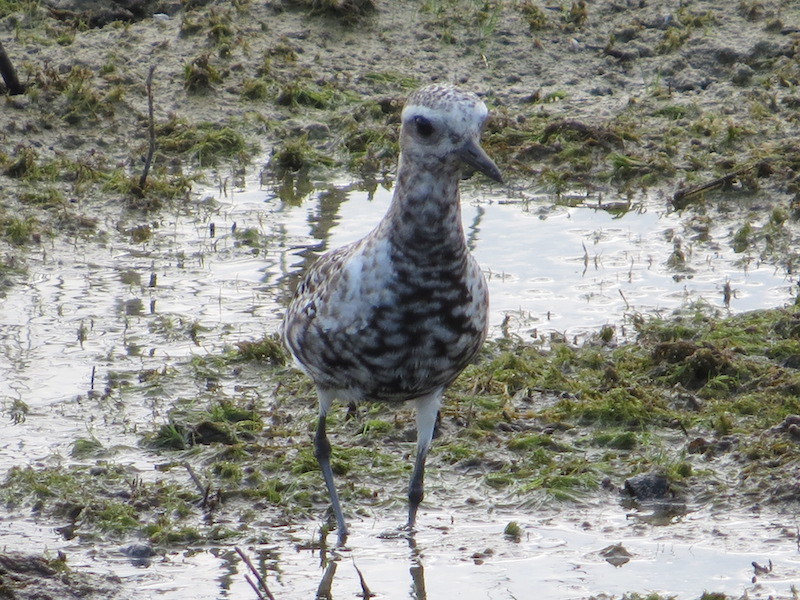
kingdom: Animalia
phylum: Chordata
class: Aves
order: Charadriiformes
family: Charadriidae
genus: Pluvialis
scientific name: Pluvialis squatarola
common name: Grey plover
